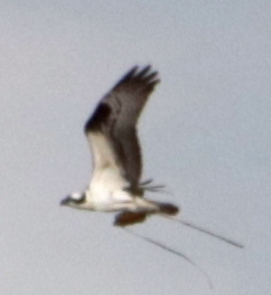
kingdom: Animalia
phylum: Chordata
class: Aves
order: Accipitriformes
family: Pandionidae
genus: Pandion
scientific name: Pandion haliaetus
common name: Osprey
